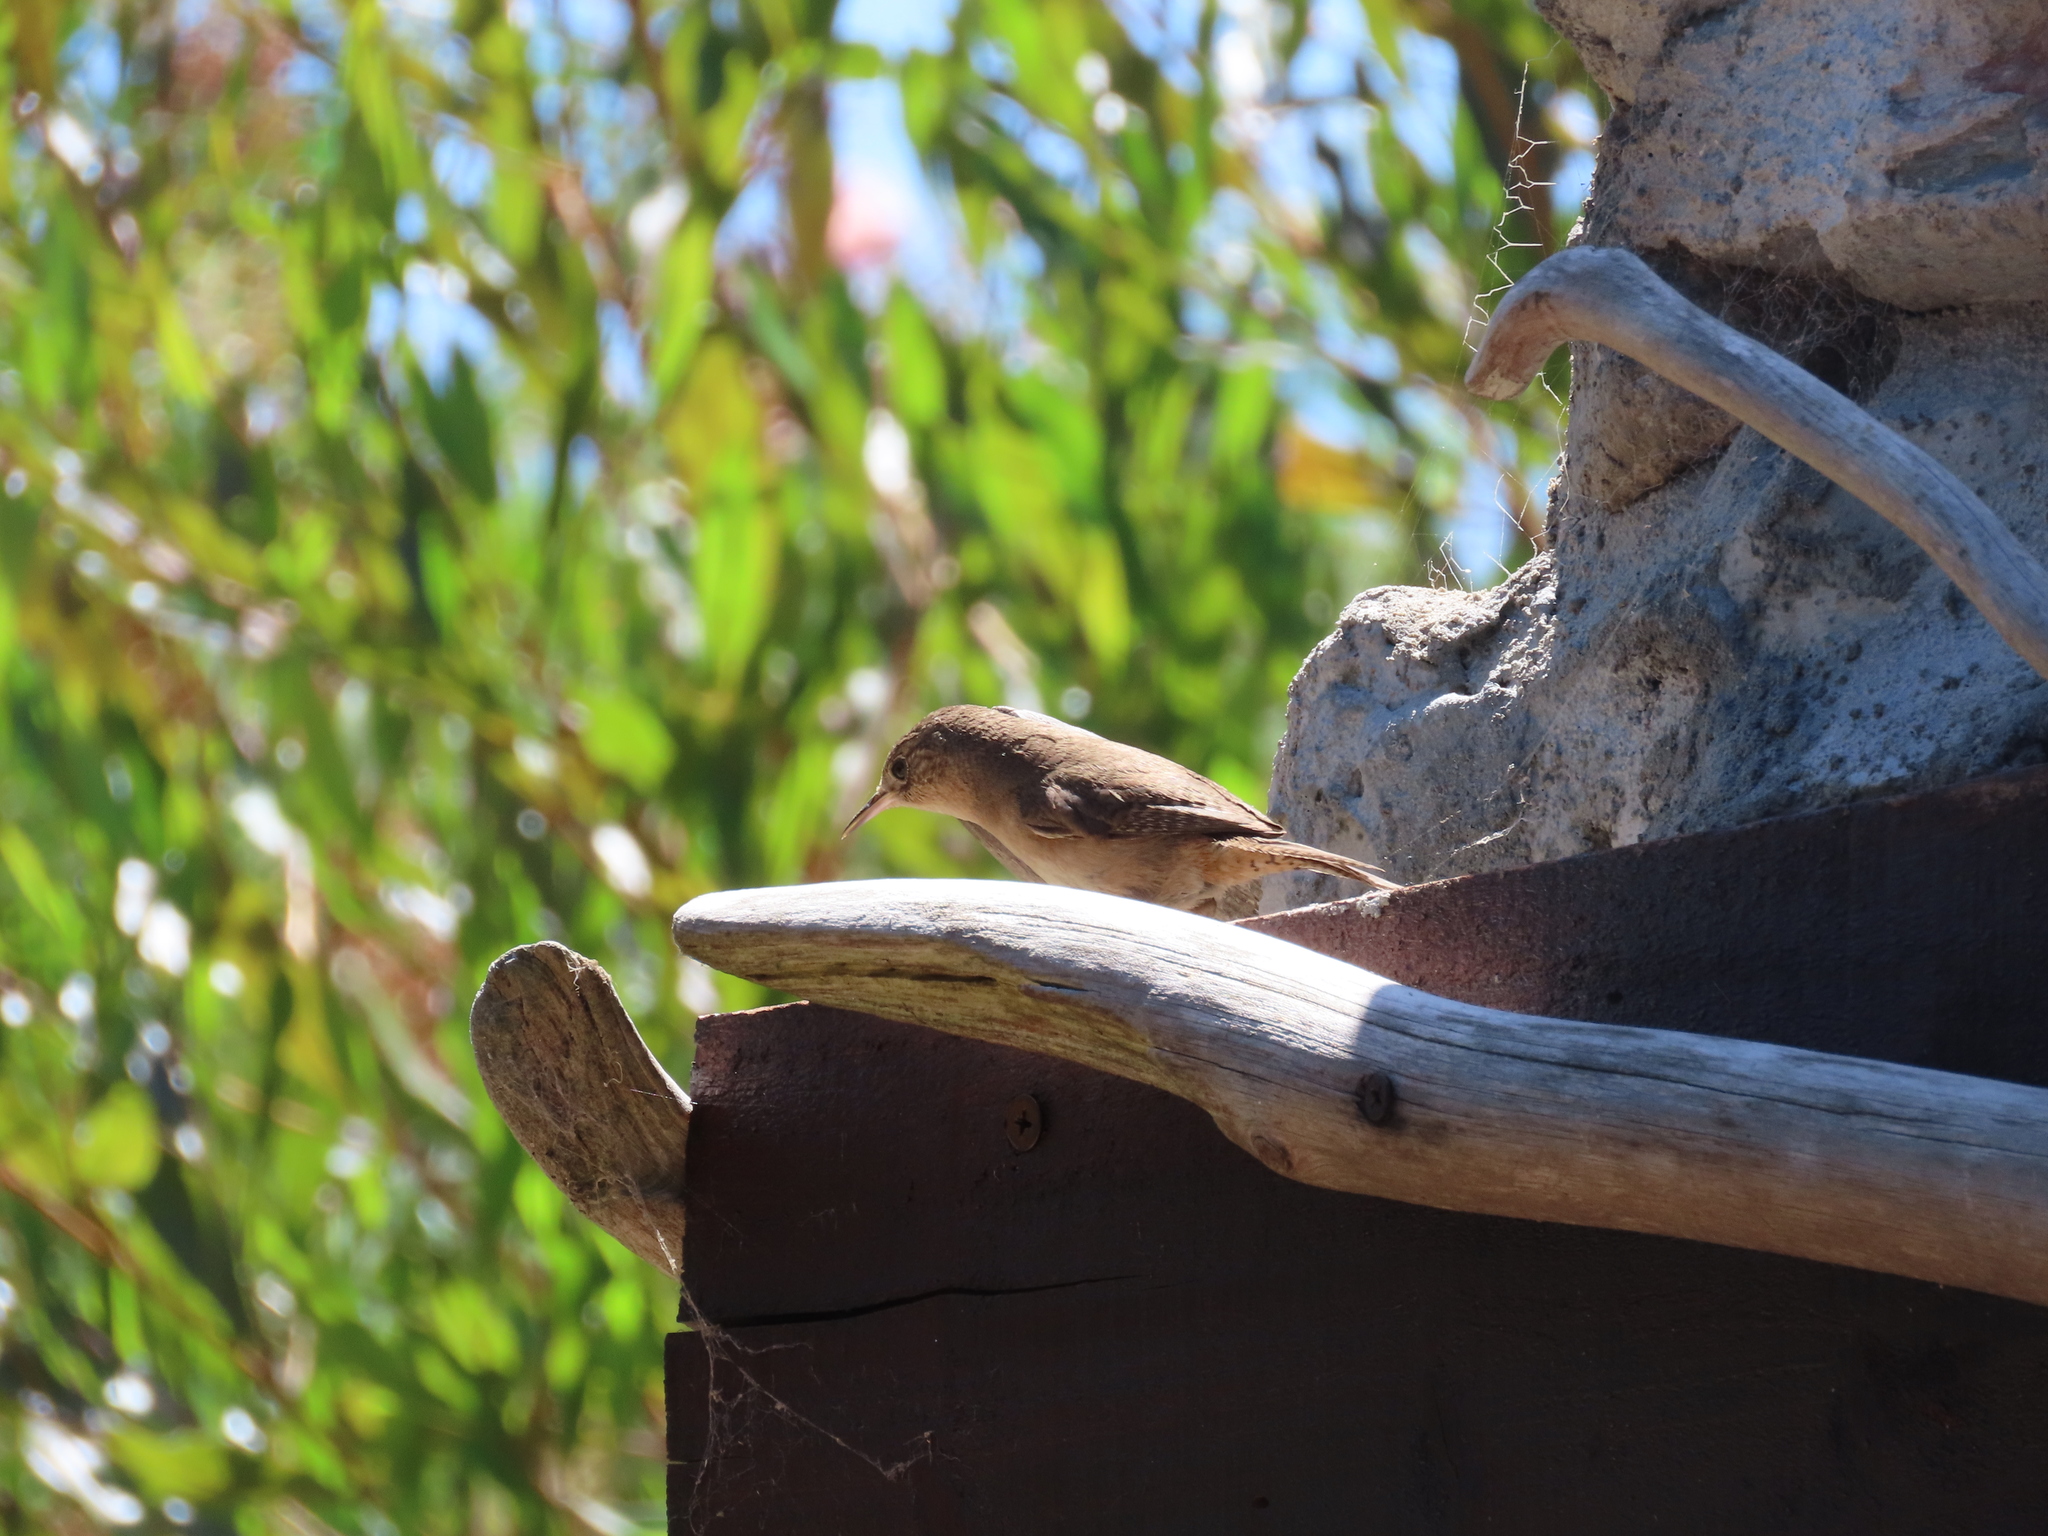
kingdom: Animalia
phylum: Chordata
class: Aves
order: Passeriformes
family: Troglodytidae
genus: Troglodytes
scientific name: Troglodytes aedon
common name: House wren
